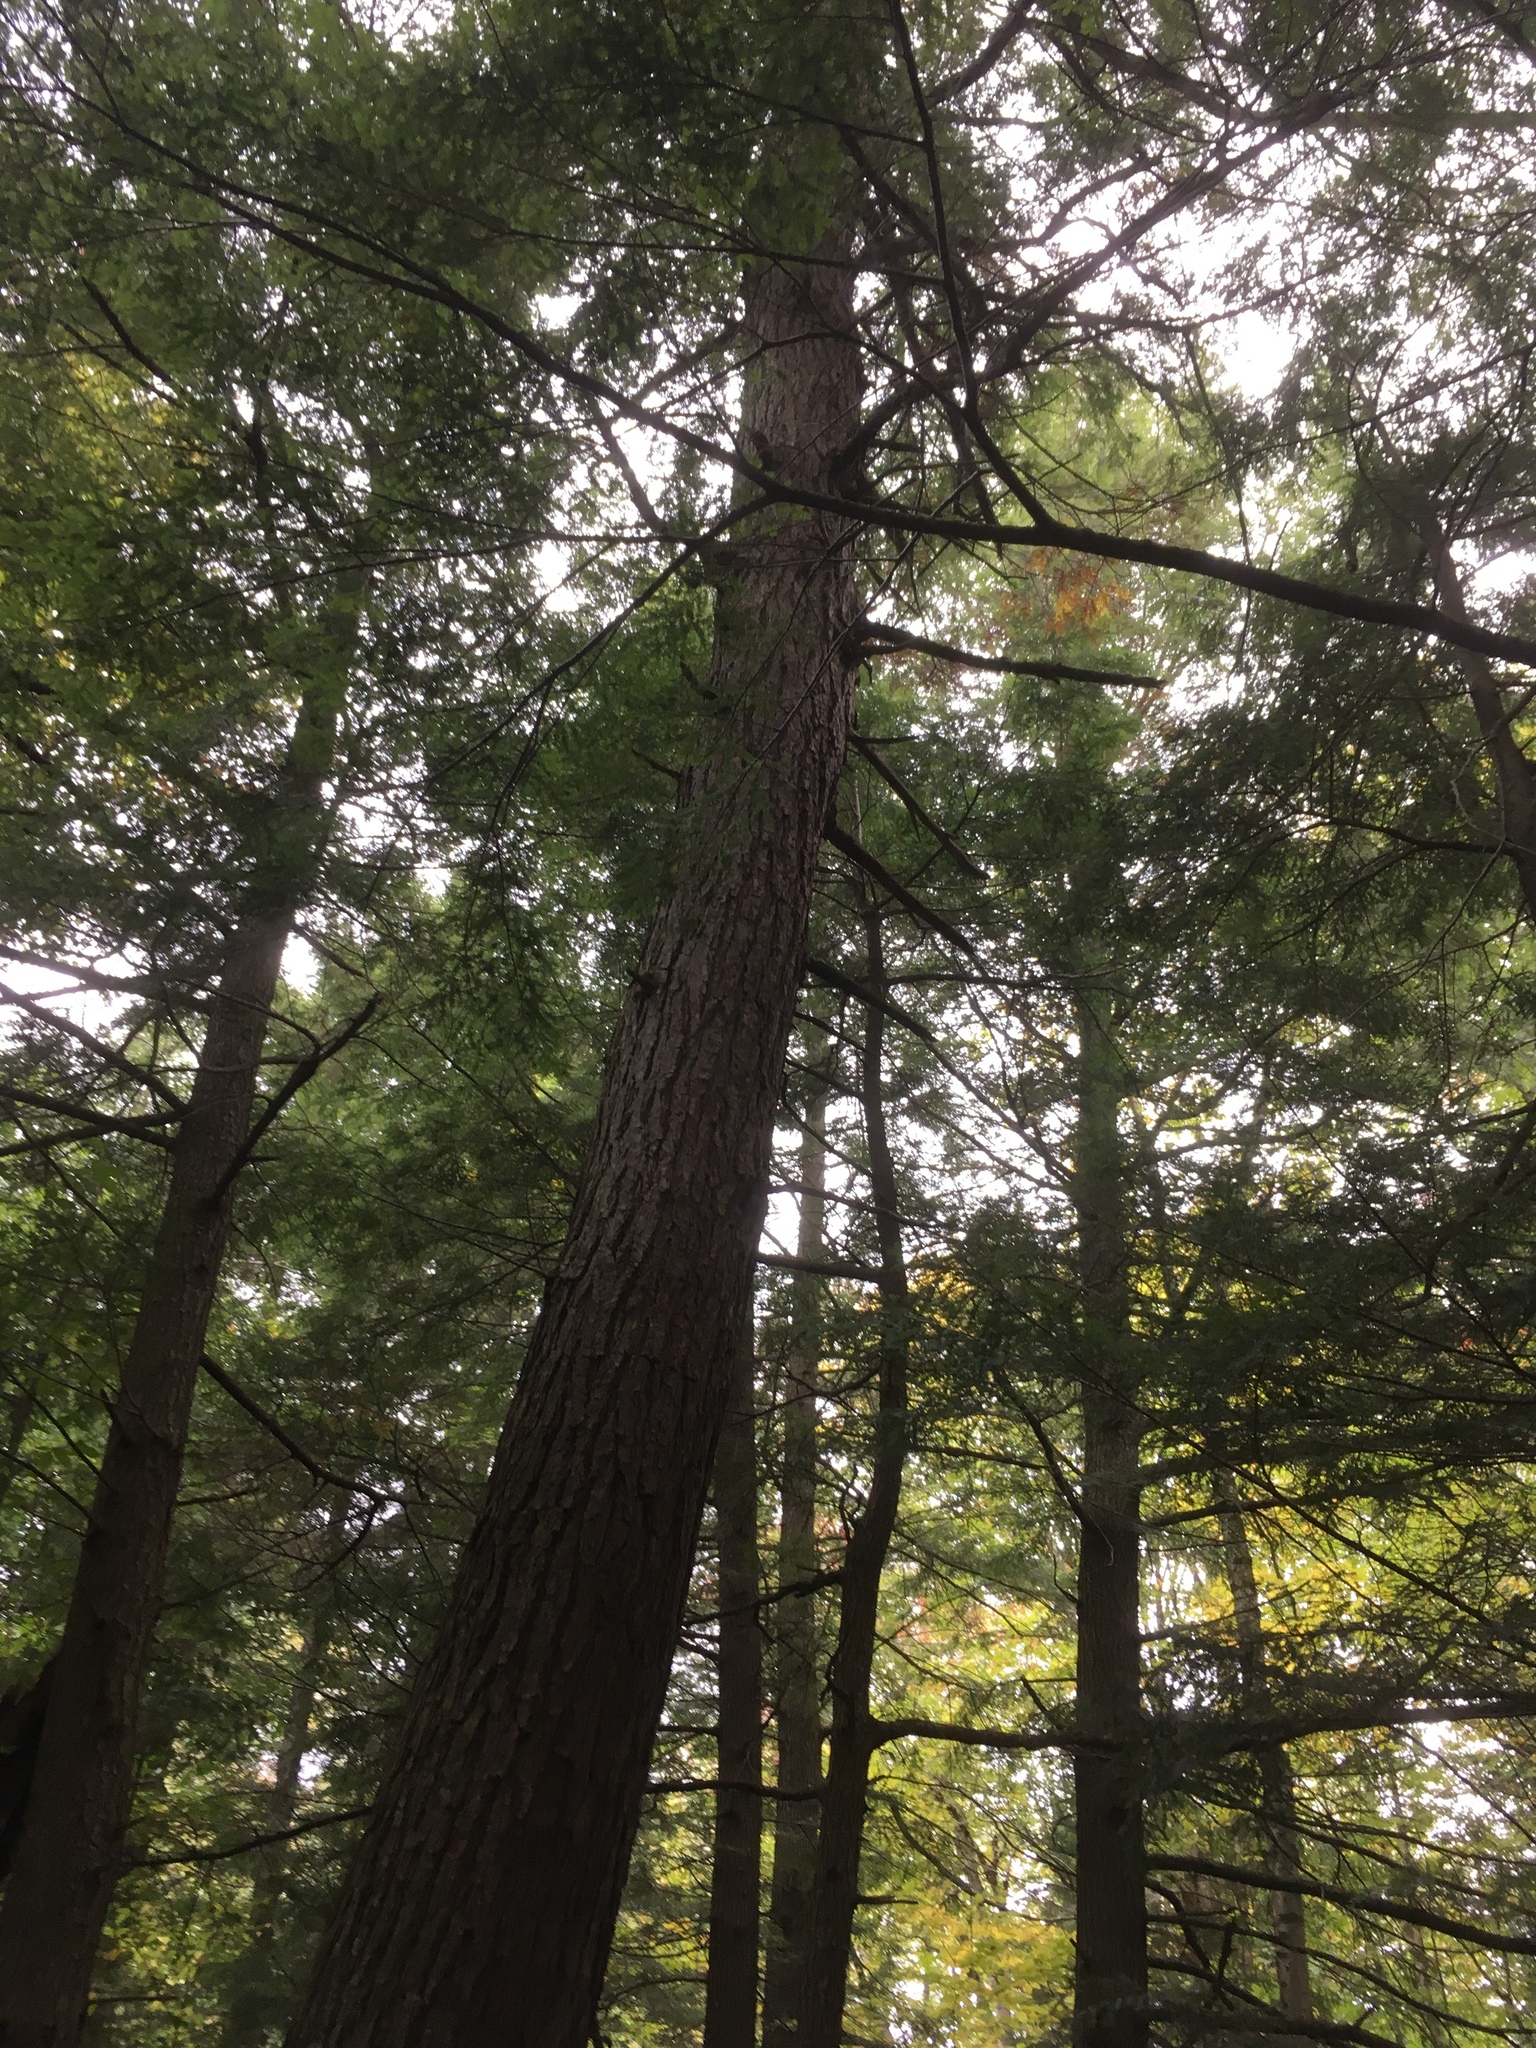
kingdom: Plantae
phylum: Tracheophyta
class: Pinopsida
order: Pinales
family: Pinaceae
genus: Tsuga
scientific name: Tsuga canadensis
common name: Eastern hemlock
